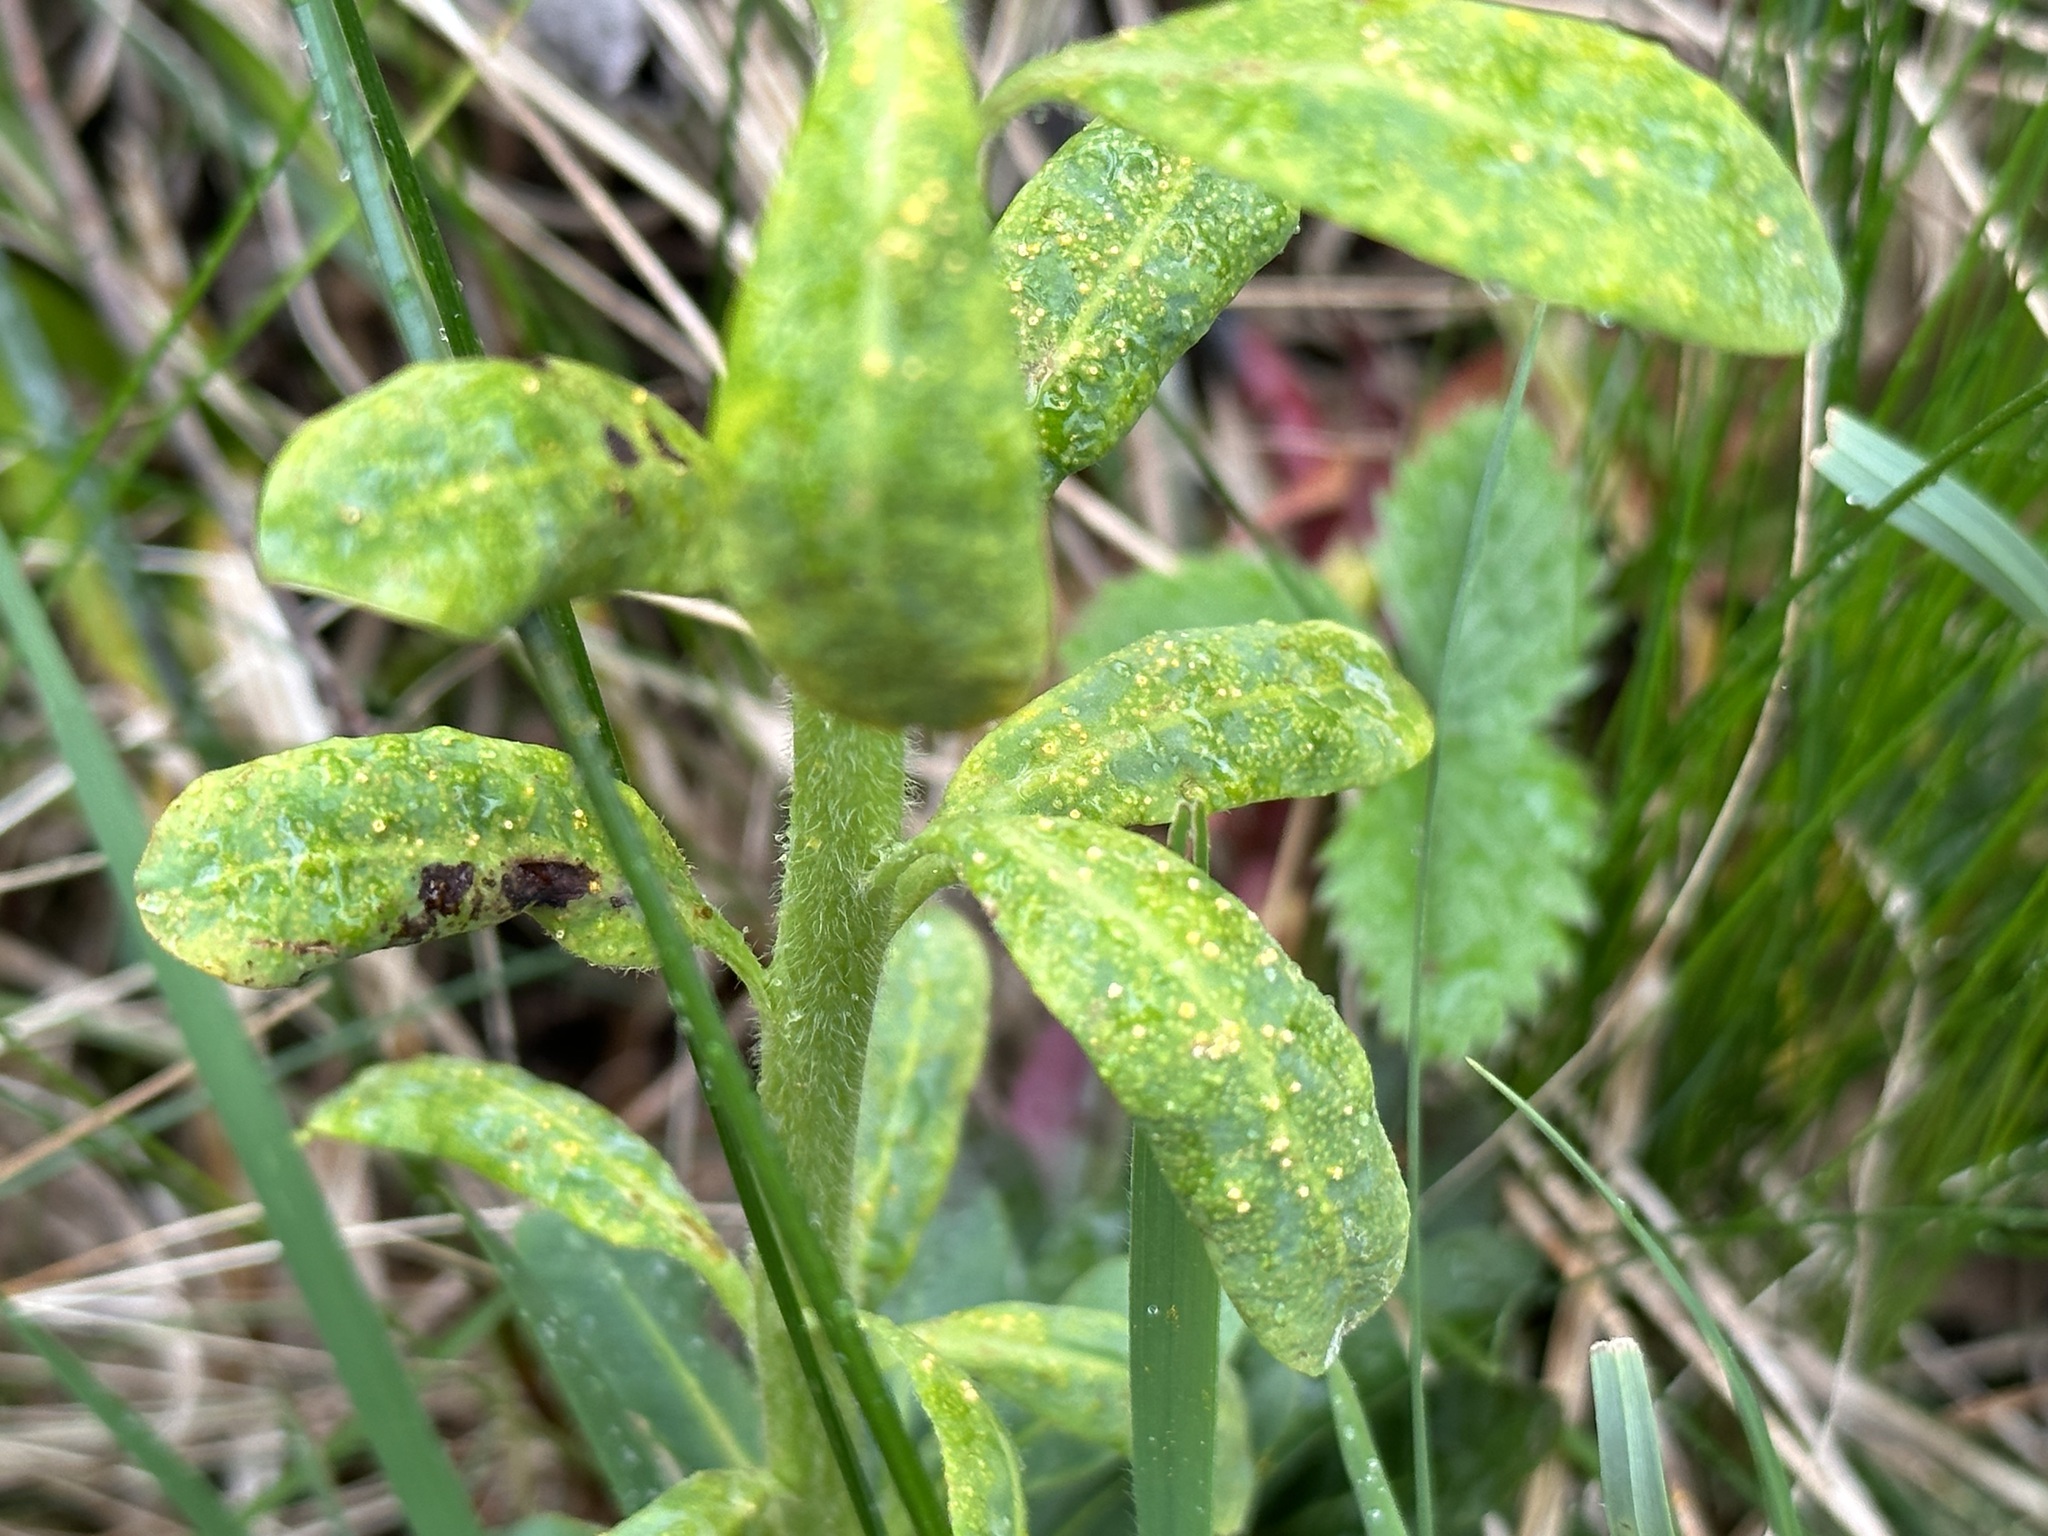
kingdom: Fungi
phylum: Basidiomycota
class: Pucciniomycetes
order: Pucciniales
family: Pucciniaceae
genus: Endophyllum
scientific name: Endophyllum euphorbiae-sylvaticae
